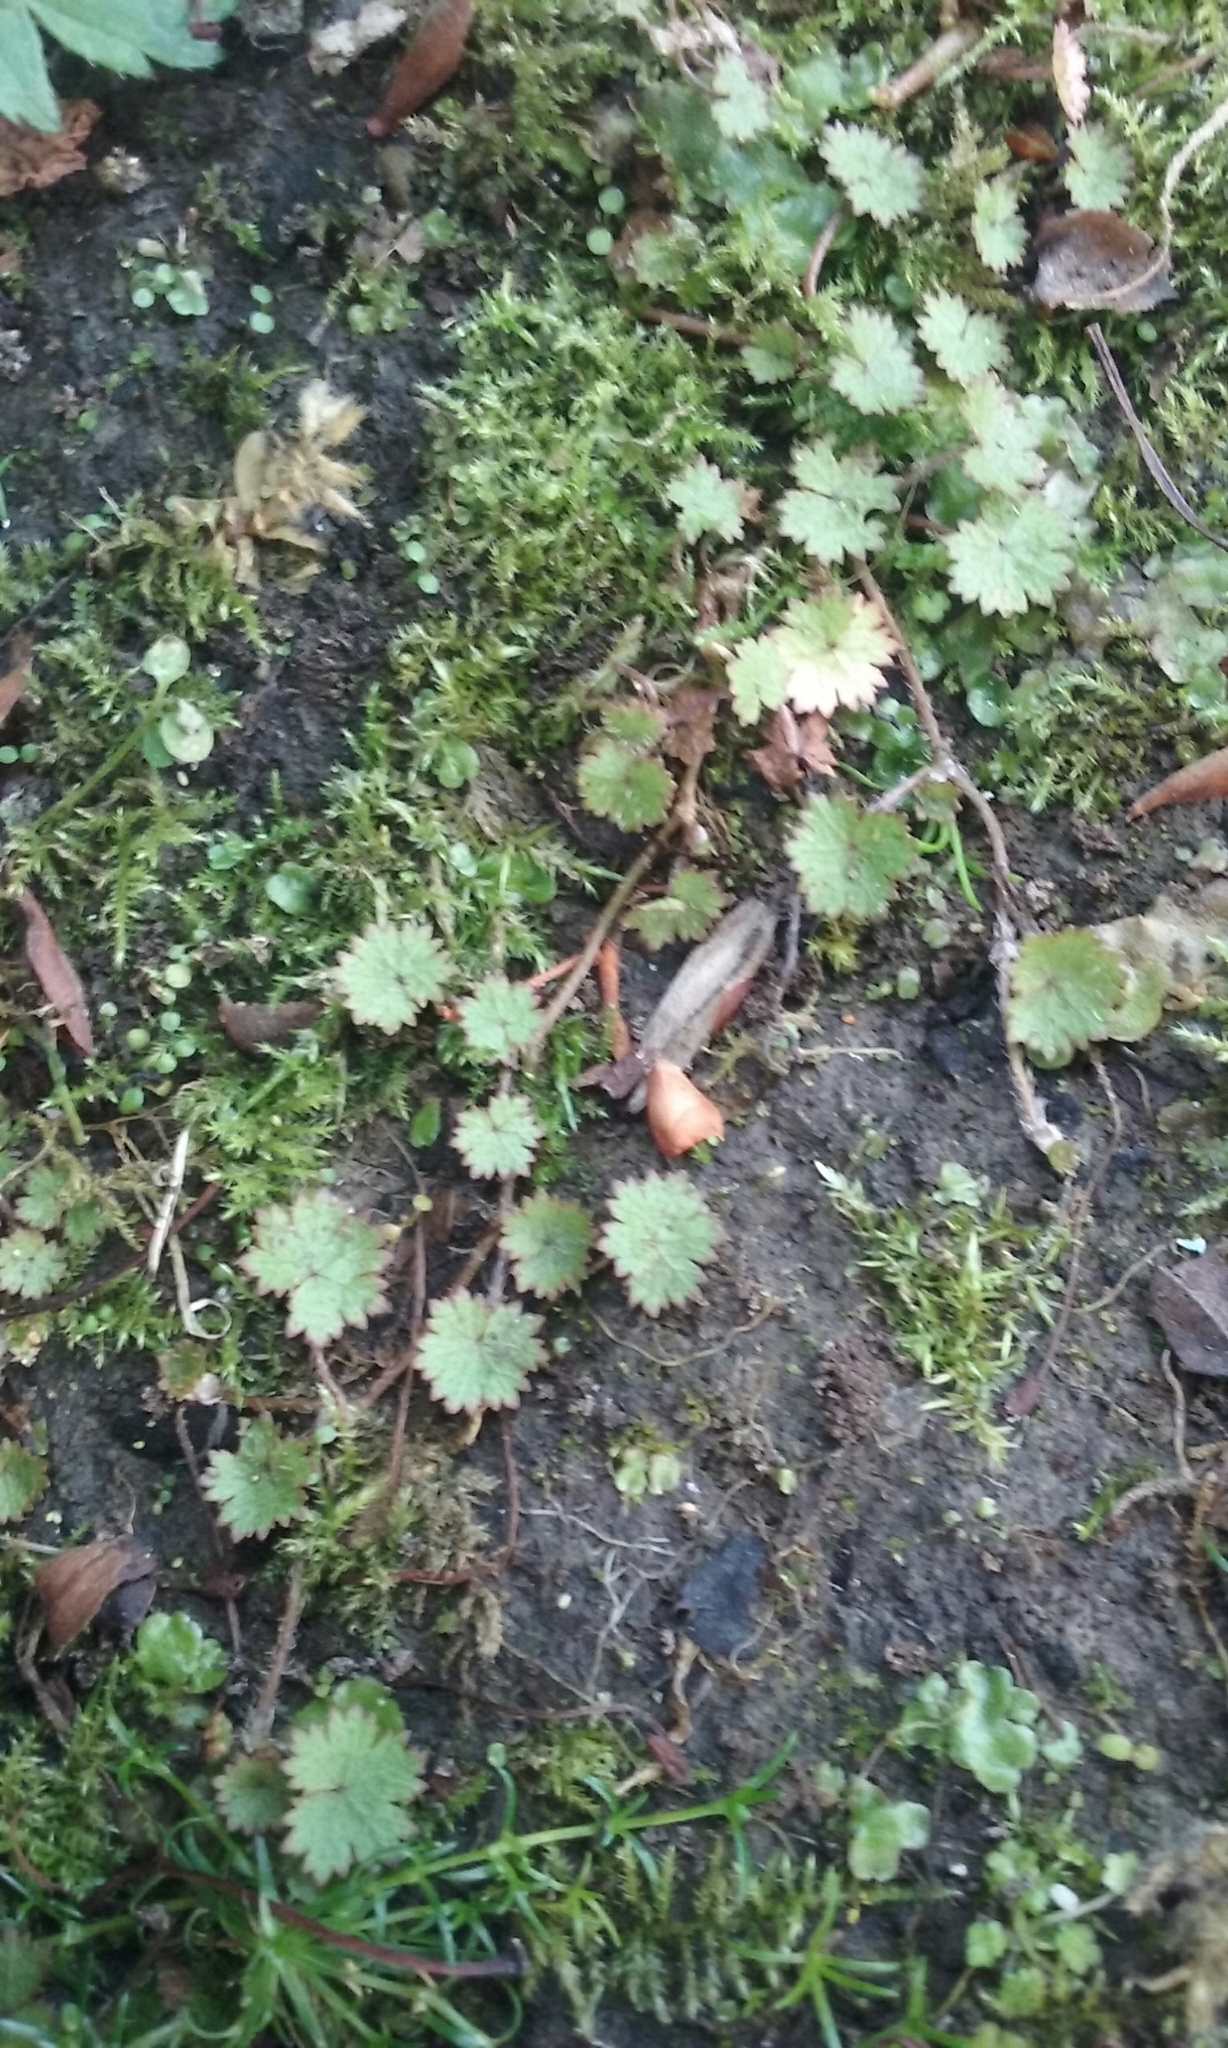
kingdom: Plantae
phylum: Tracheophyta
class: Magnoliopsida
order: Apiales
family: Araliaceae
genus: Hydrocotyle
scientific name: Hydrocotyle moschata
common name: Hairy pennywort
